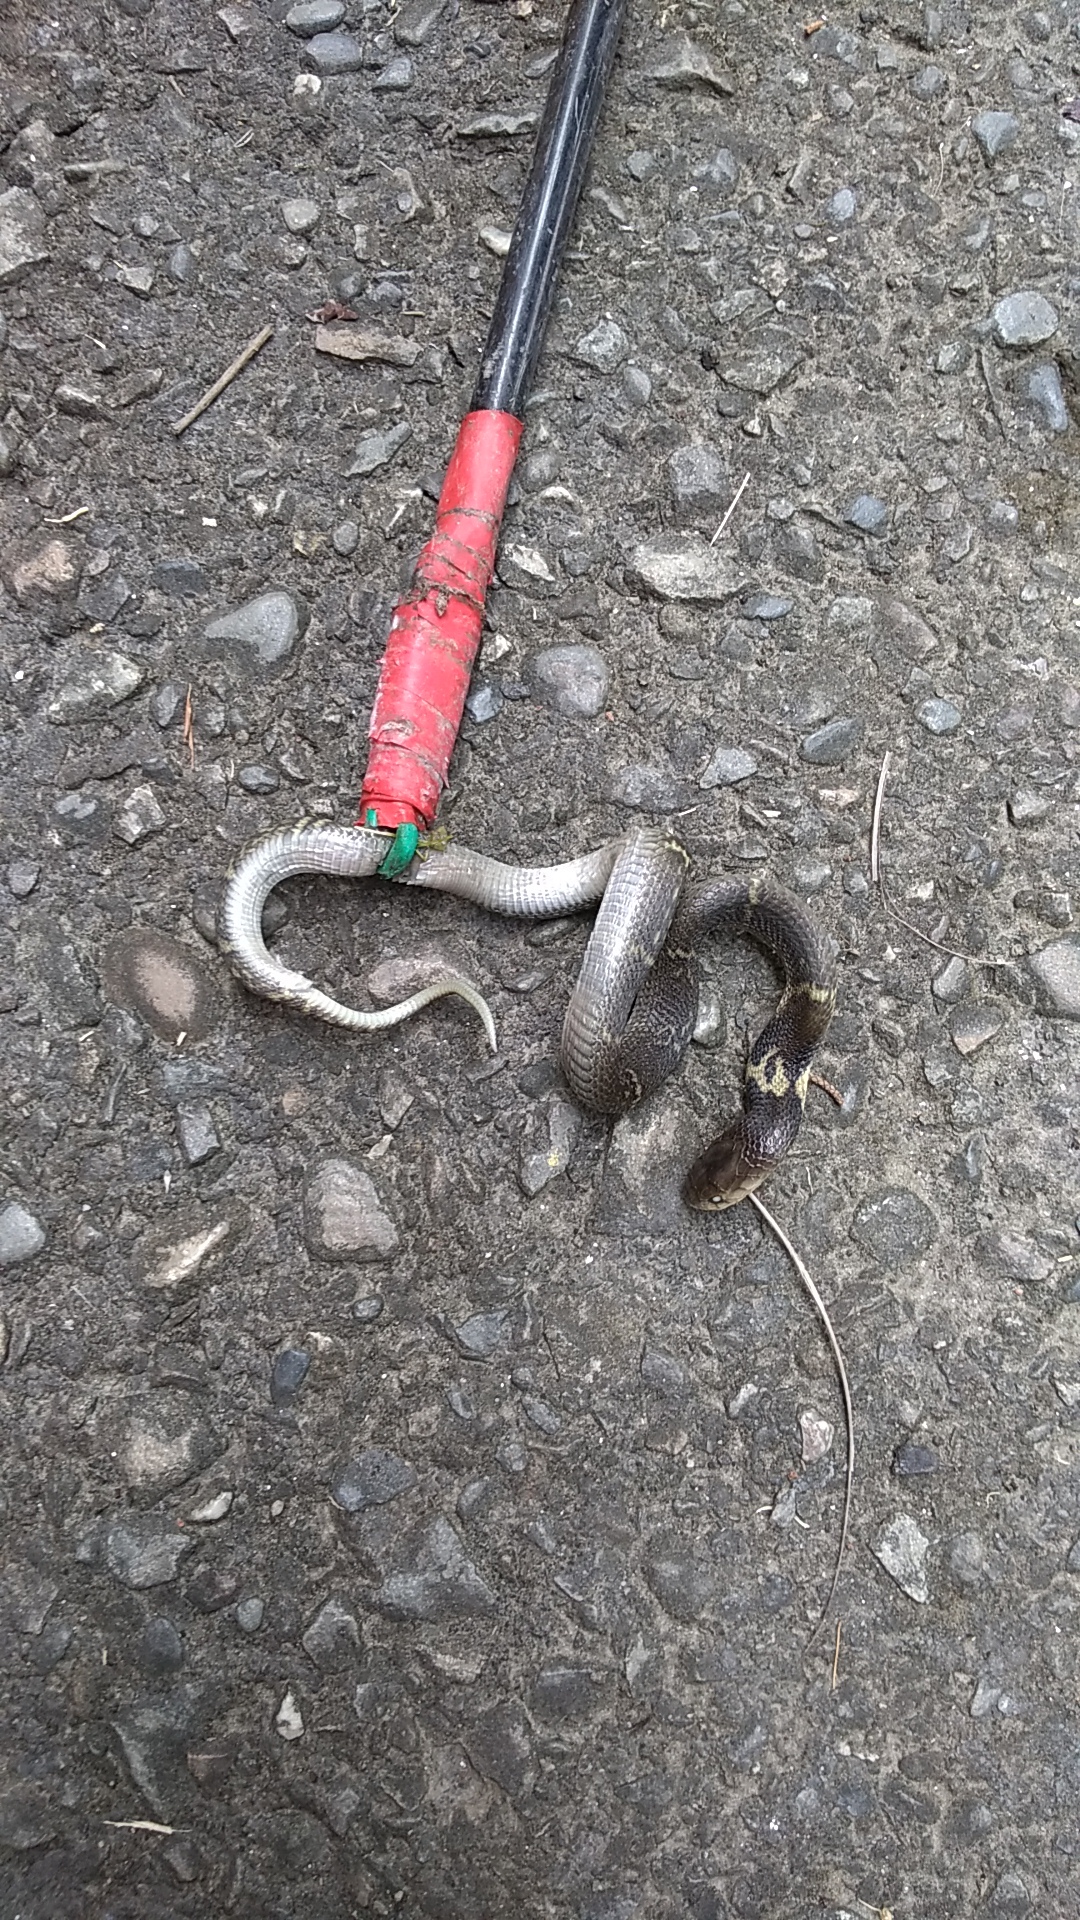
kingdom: Animalia
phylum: Chordata
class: Squamata
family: Elapidae
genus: Naja
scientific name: Naja atra
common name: Chinese cobra
